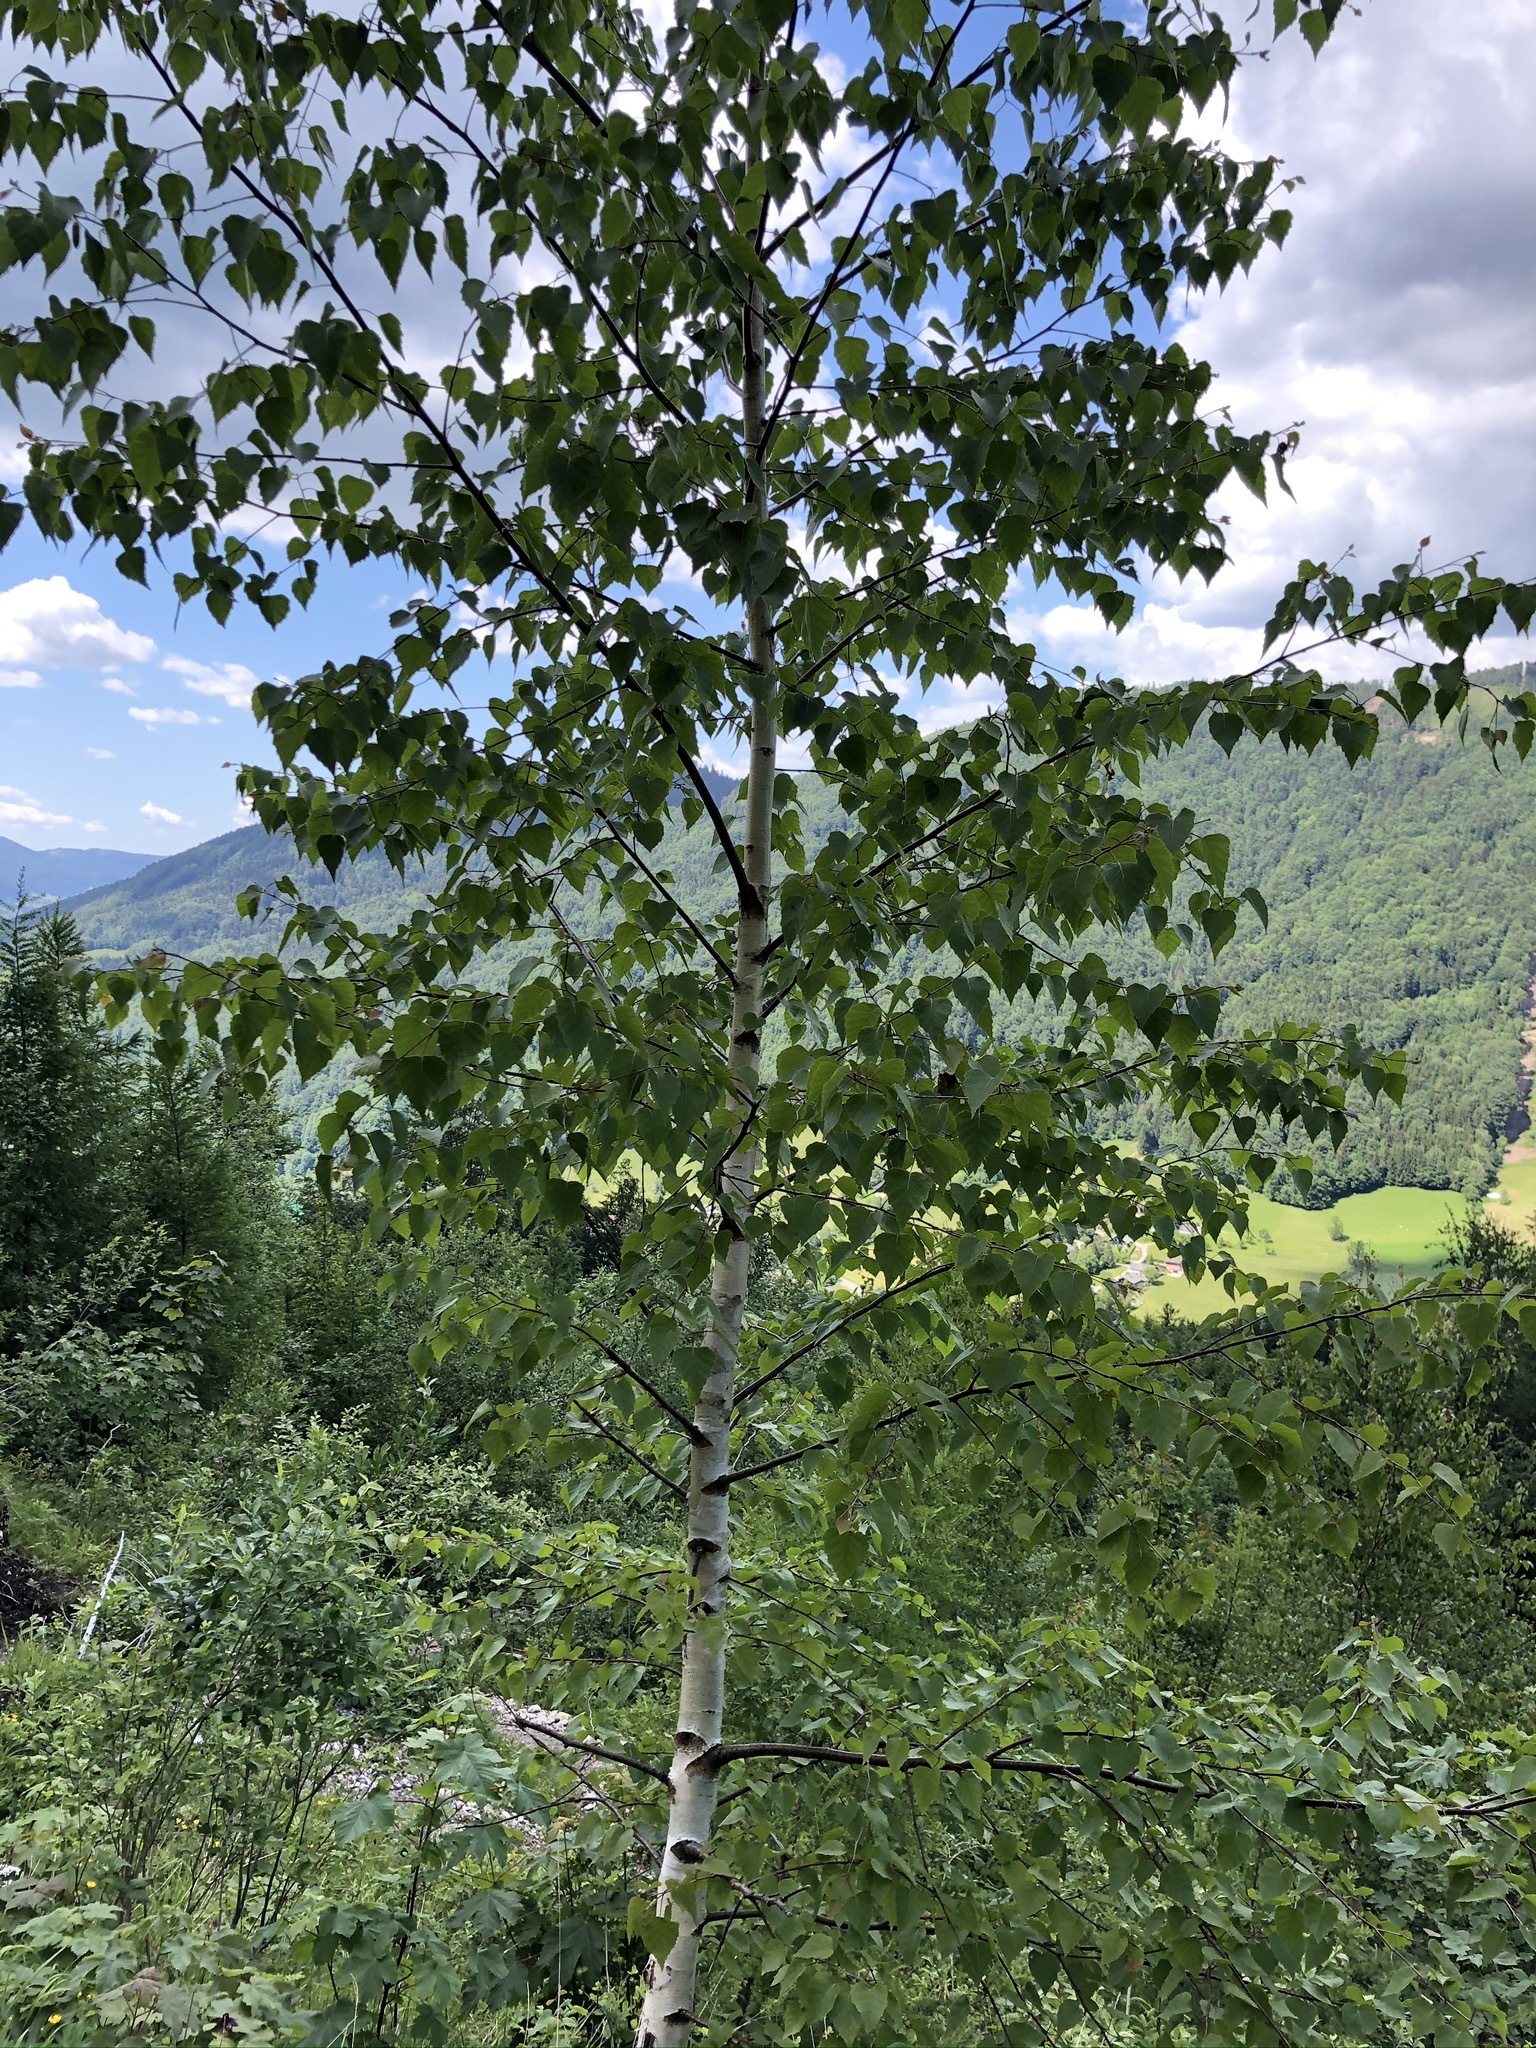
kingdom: Plantae
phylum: Tracheophyta
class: Magnoliopsida
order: Fagales
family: Betulaceae
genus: Betula
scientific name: Betula pendula
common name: Silver birch
